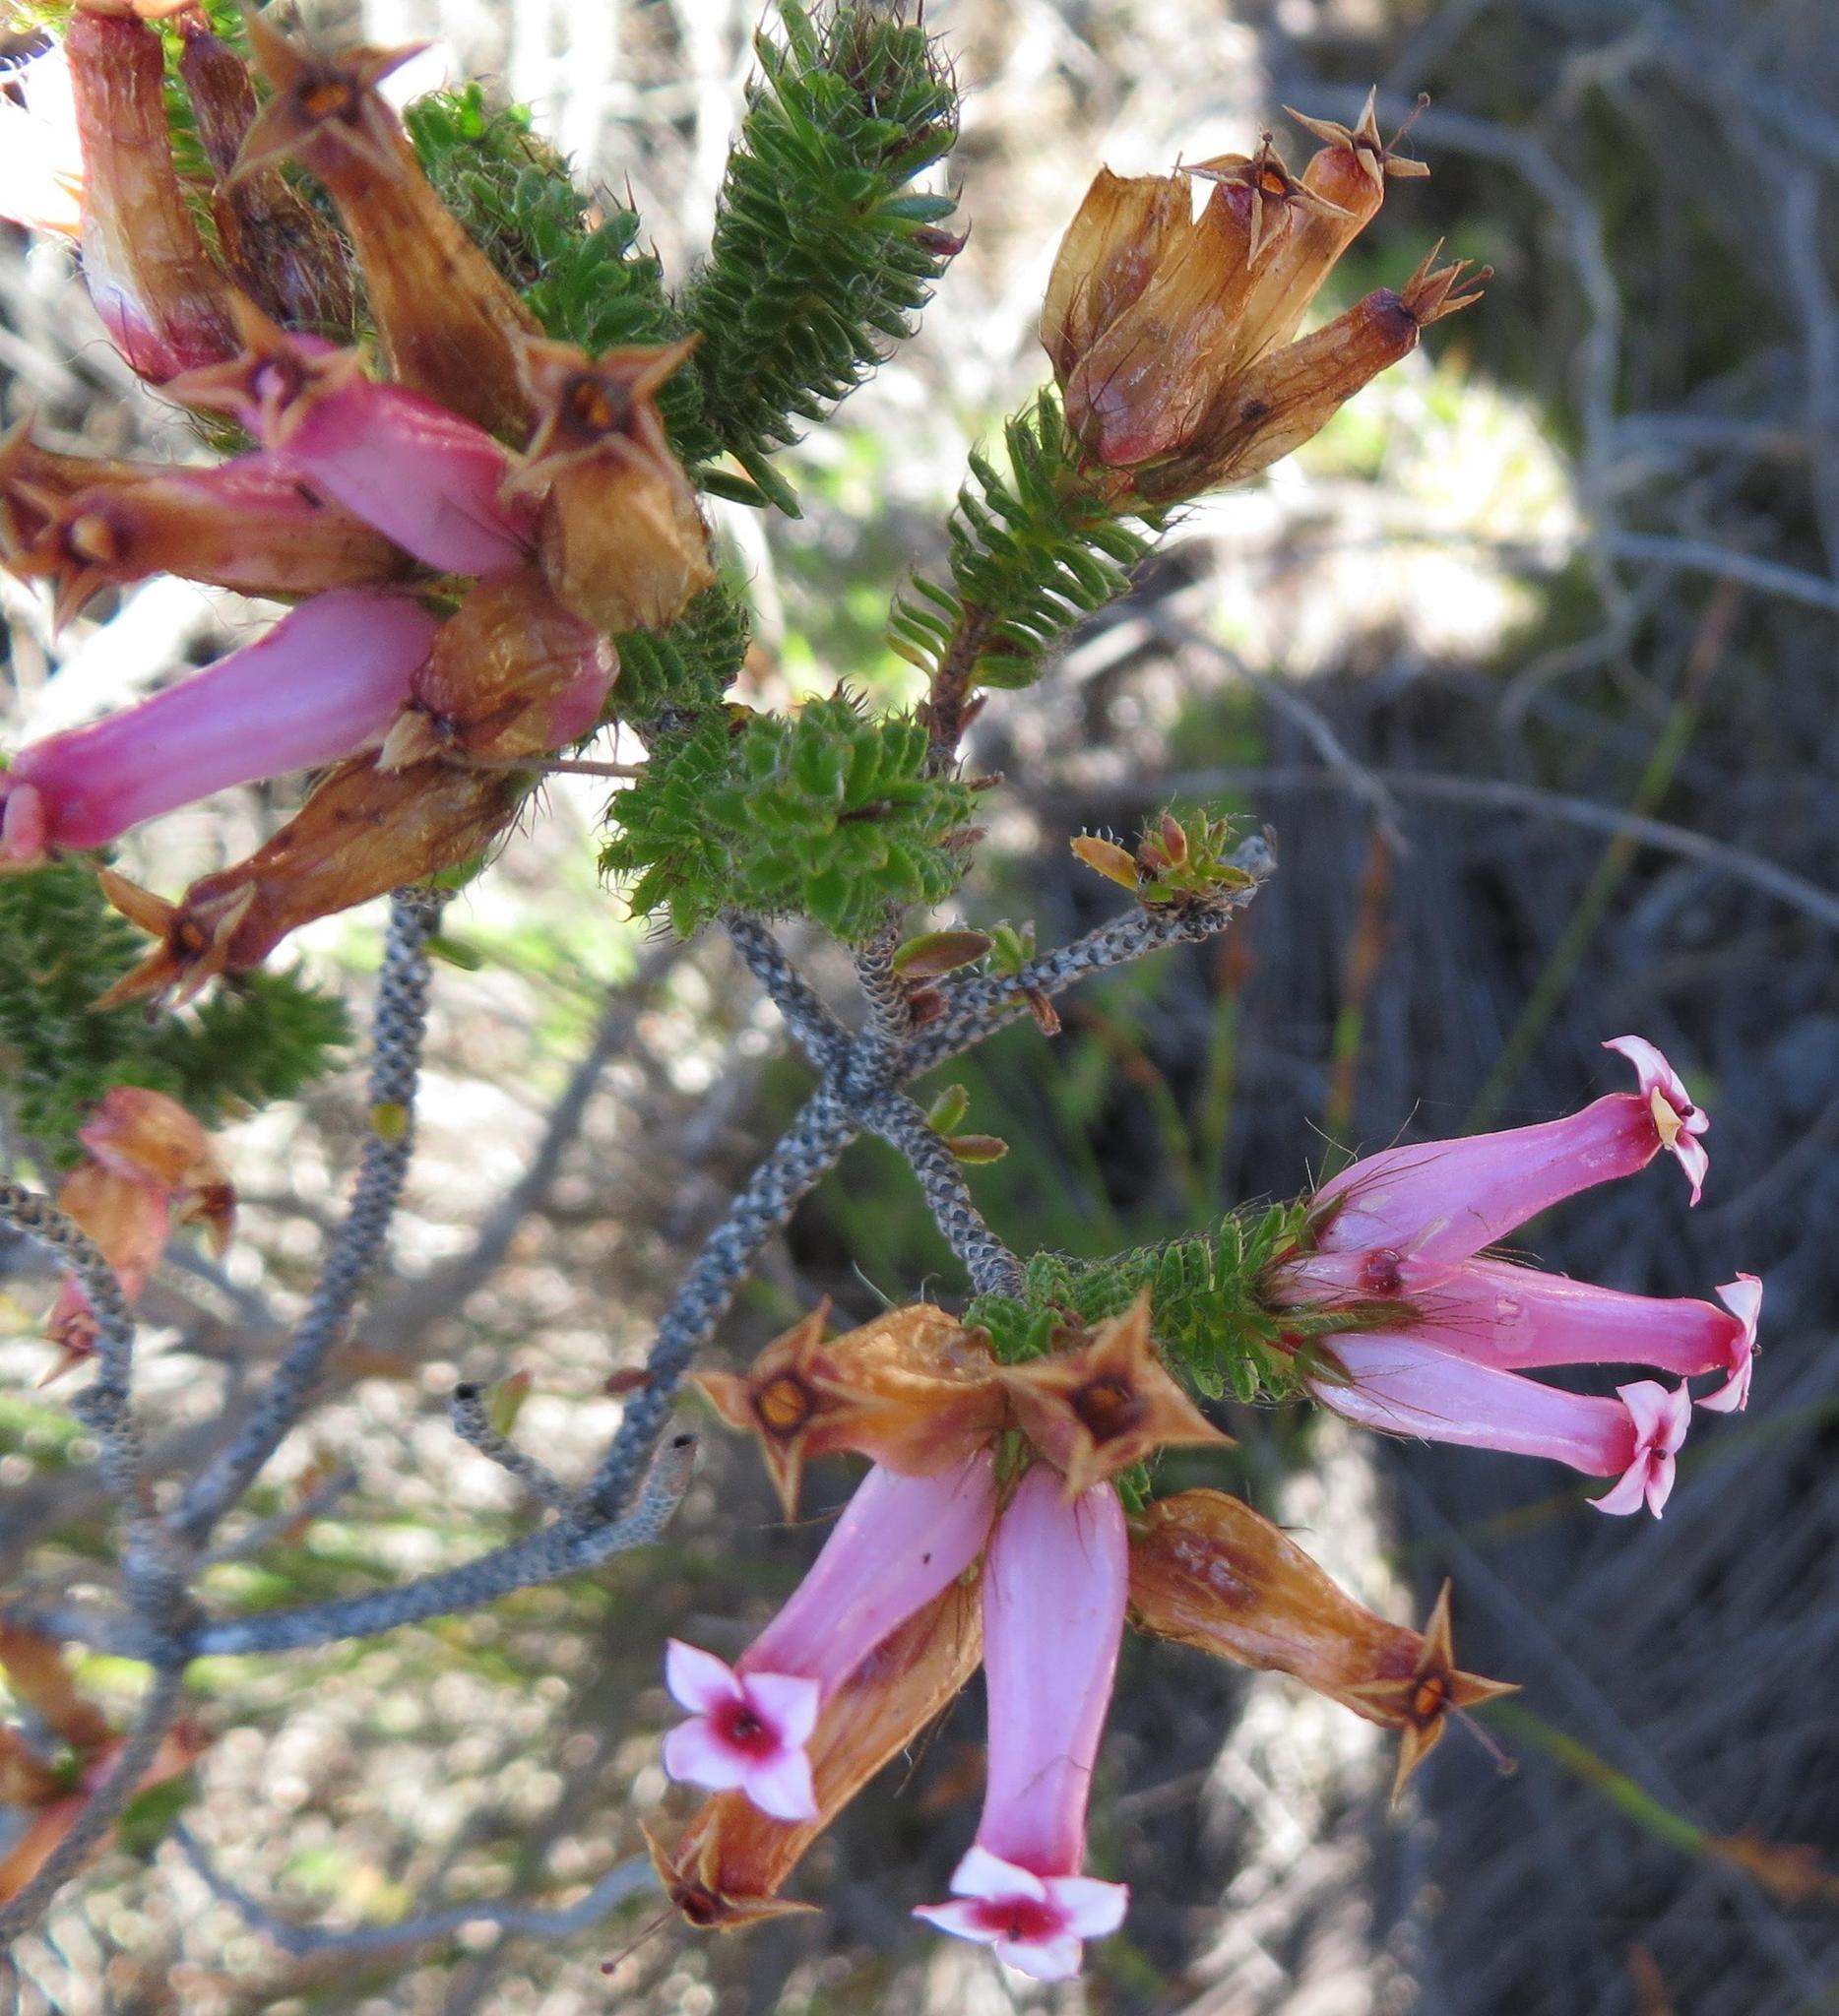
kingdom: Plantae
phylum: Tracheophyta
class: Magnoliopsida
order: Ericales
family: Ericaceae
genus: Erica
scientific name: Erica gysbertii
